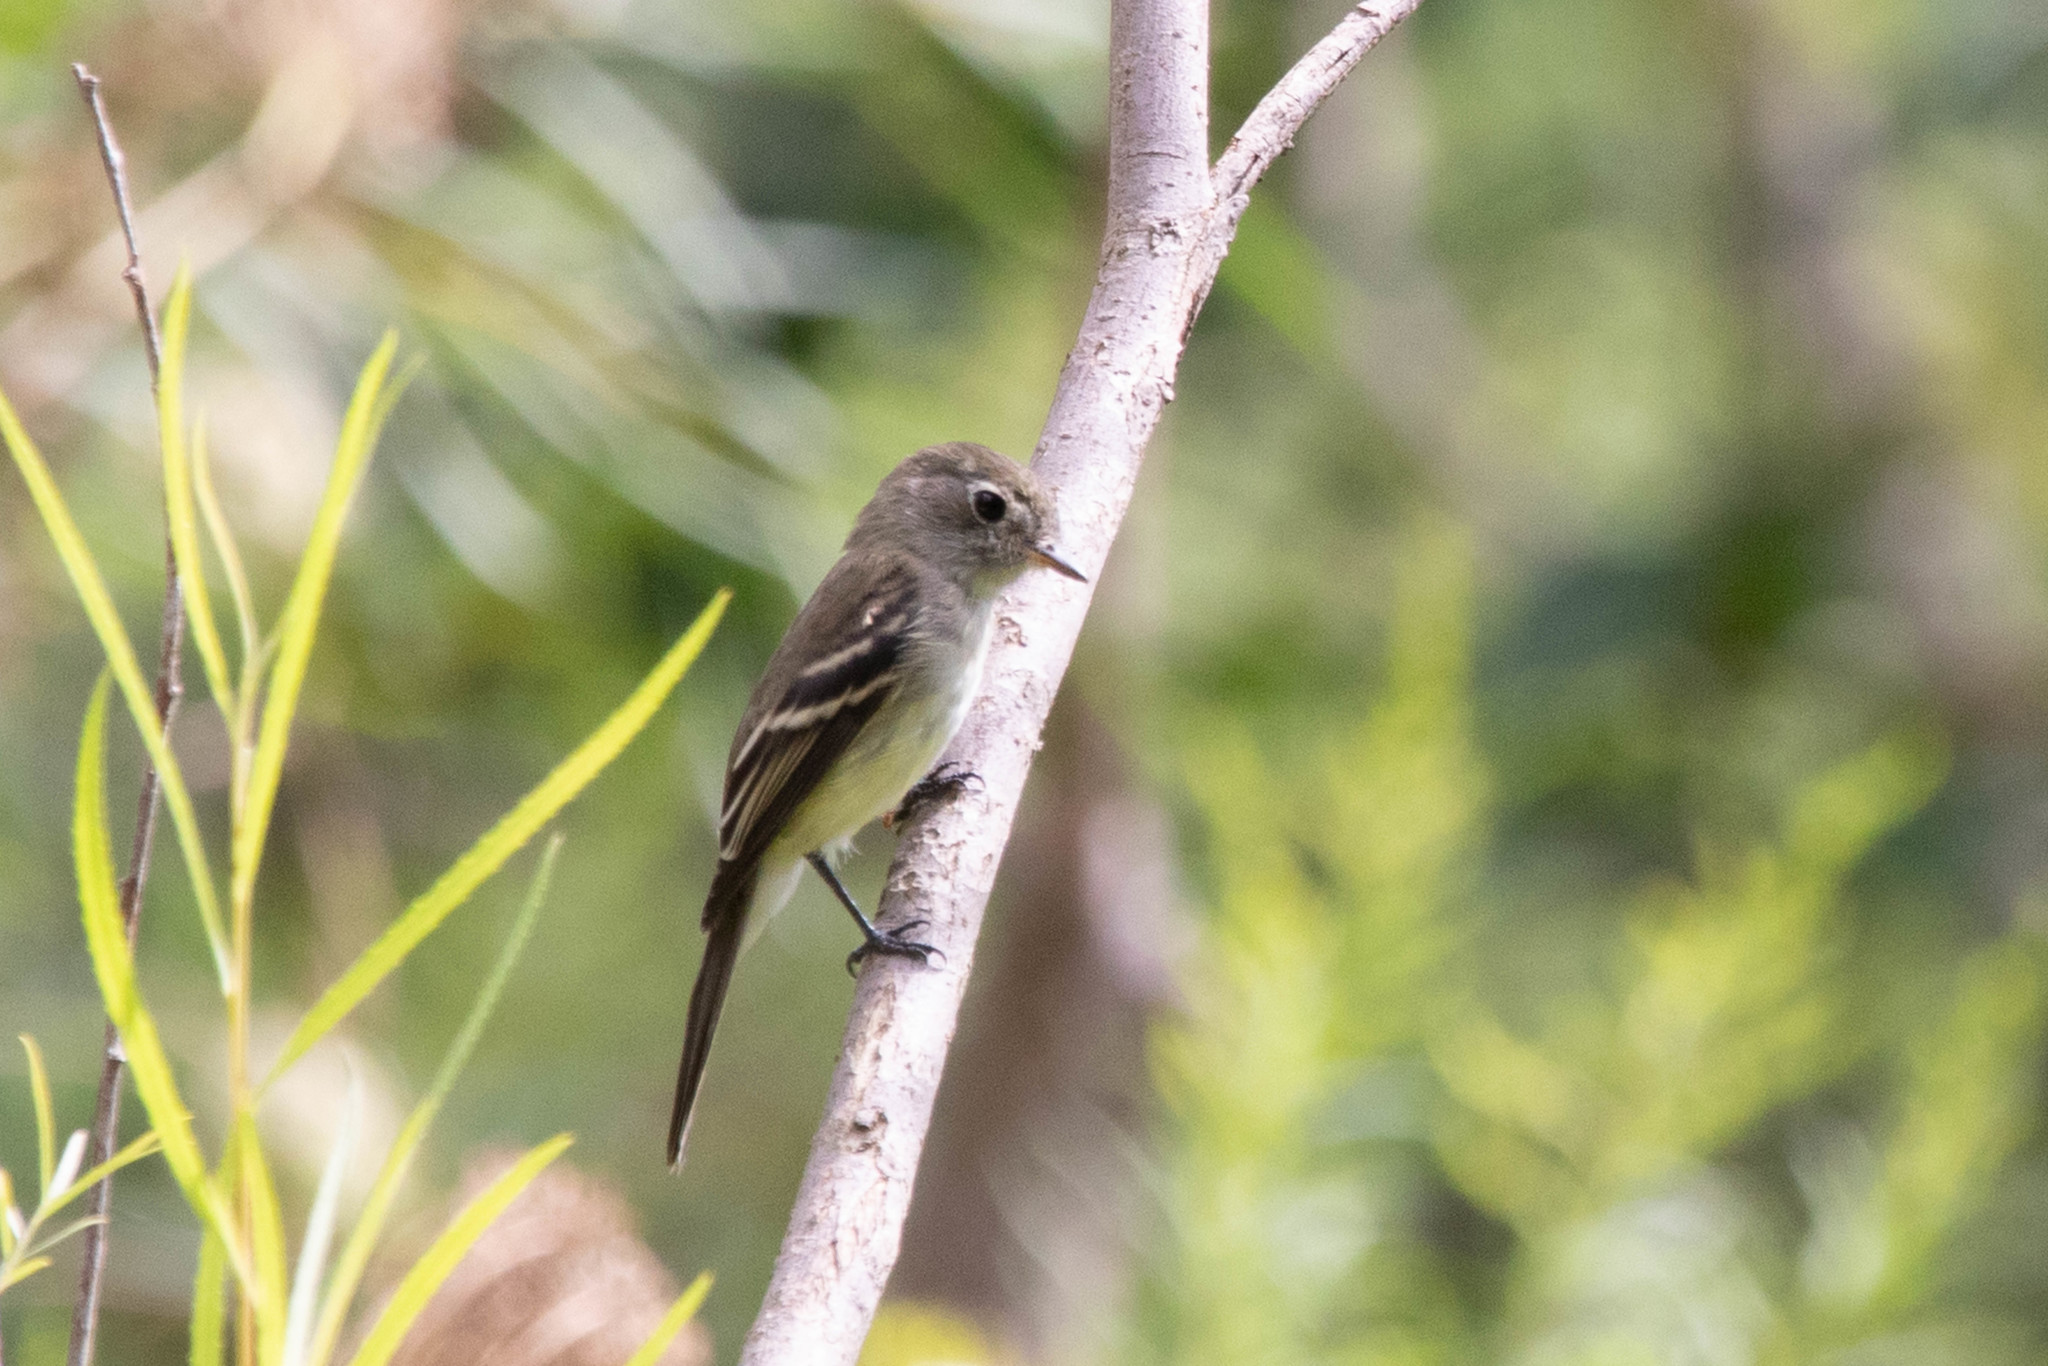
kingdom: Animalia
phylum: Chordata
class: Aves
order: Passeriformes
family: Tyrannidae
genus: Empidonax
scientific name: Empidonax minimus
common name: Least flycatcher
